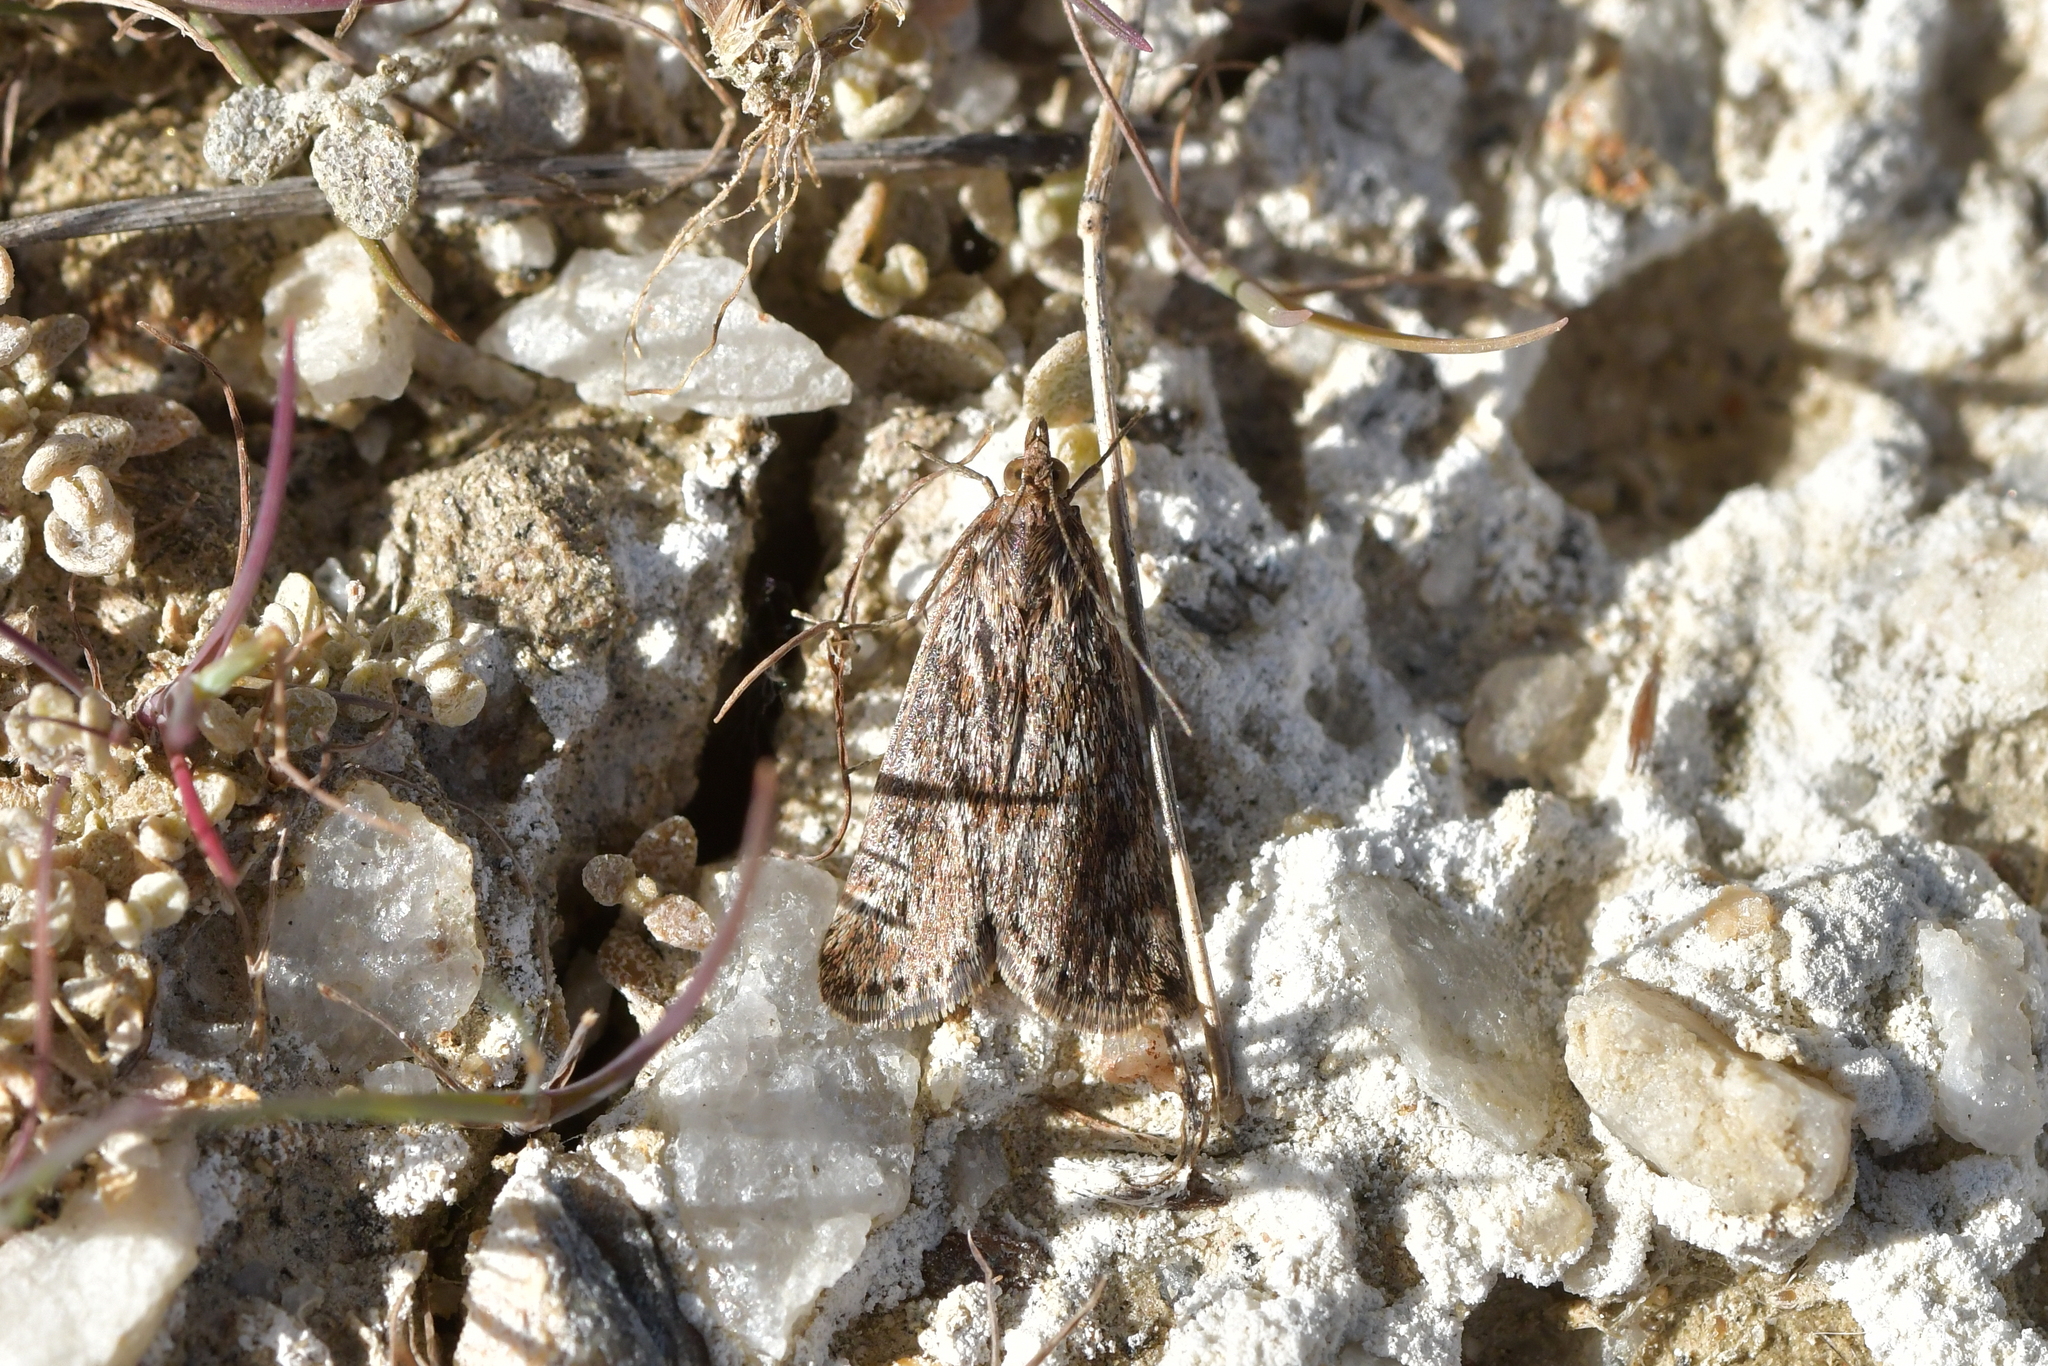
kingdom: Animalia
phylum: Arthropoda
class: Insecta
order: Lepidoptera
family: Crambidae
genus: Achyra
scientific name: Achyra affinitalis
